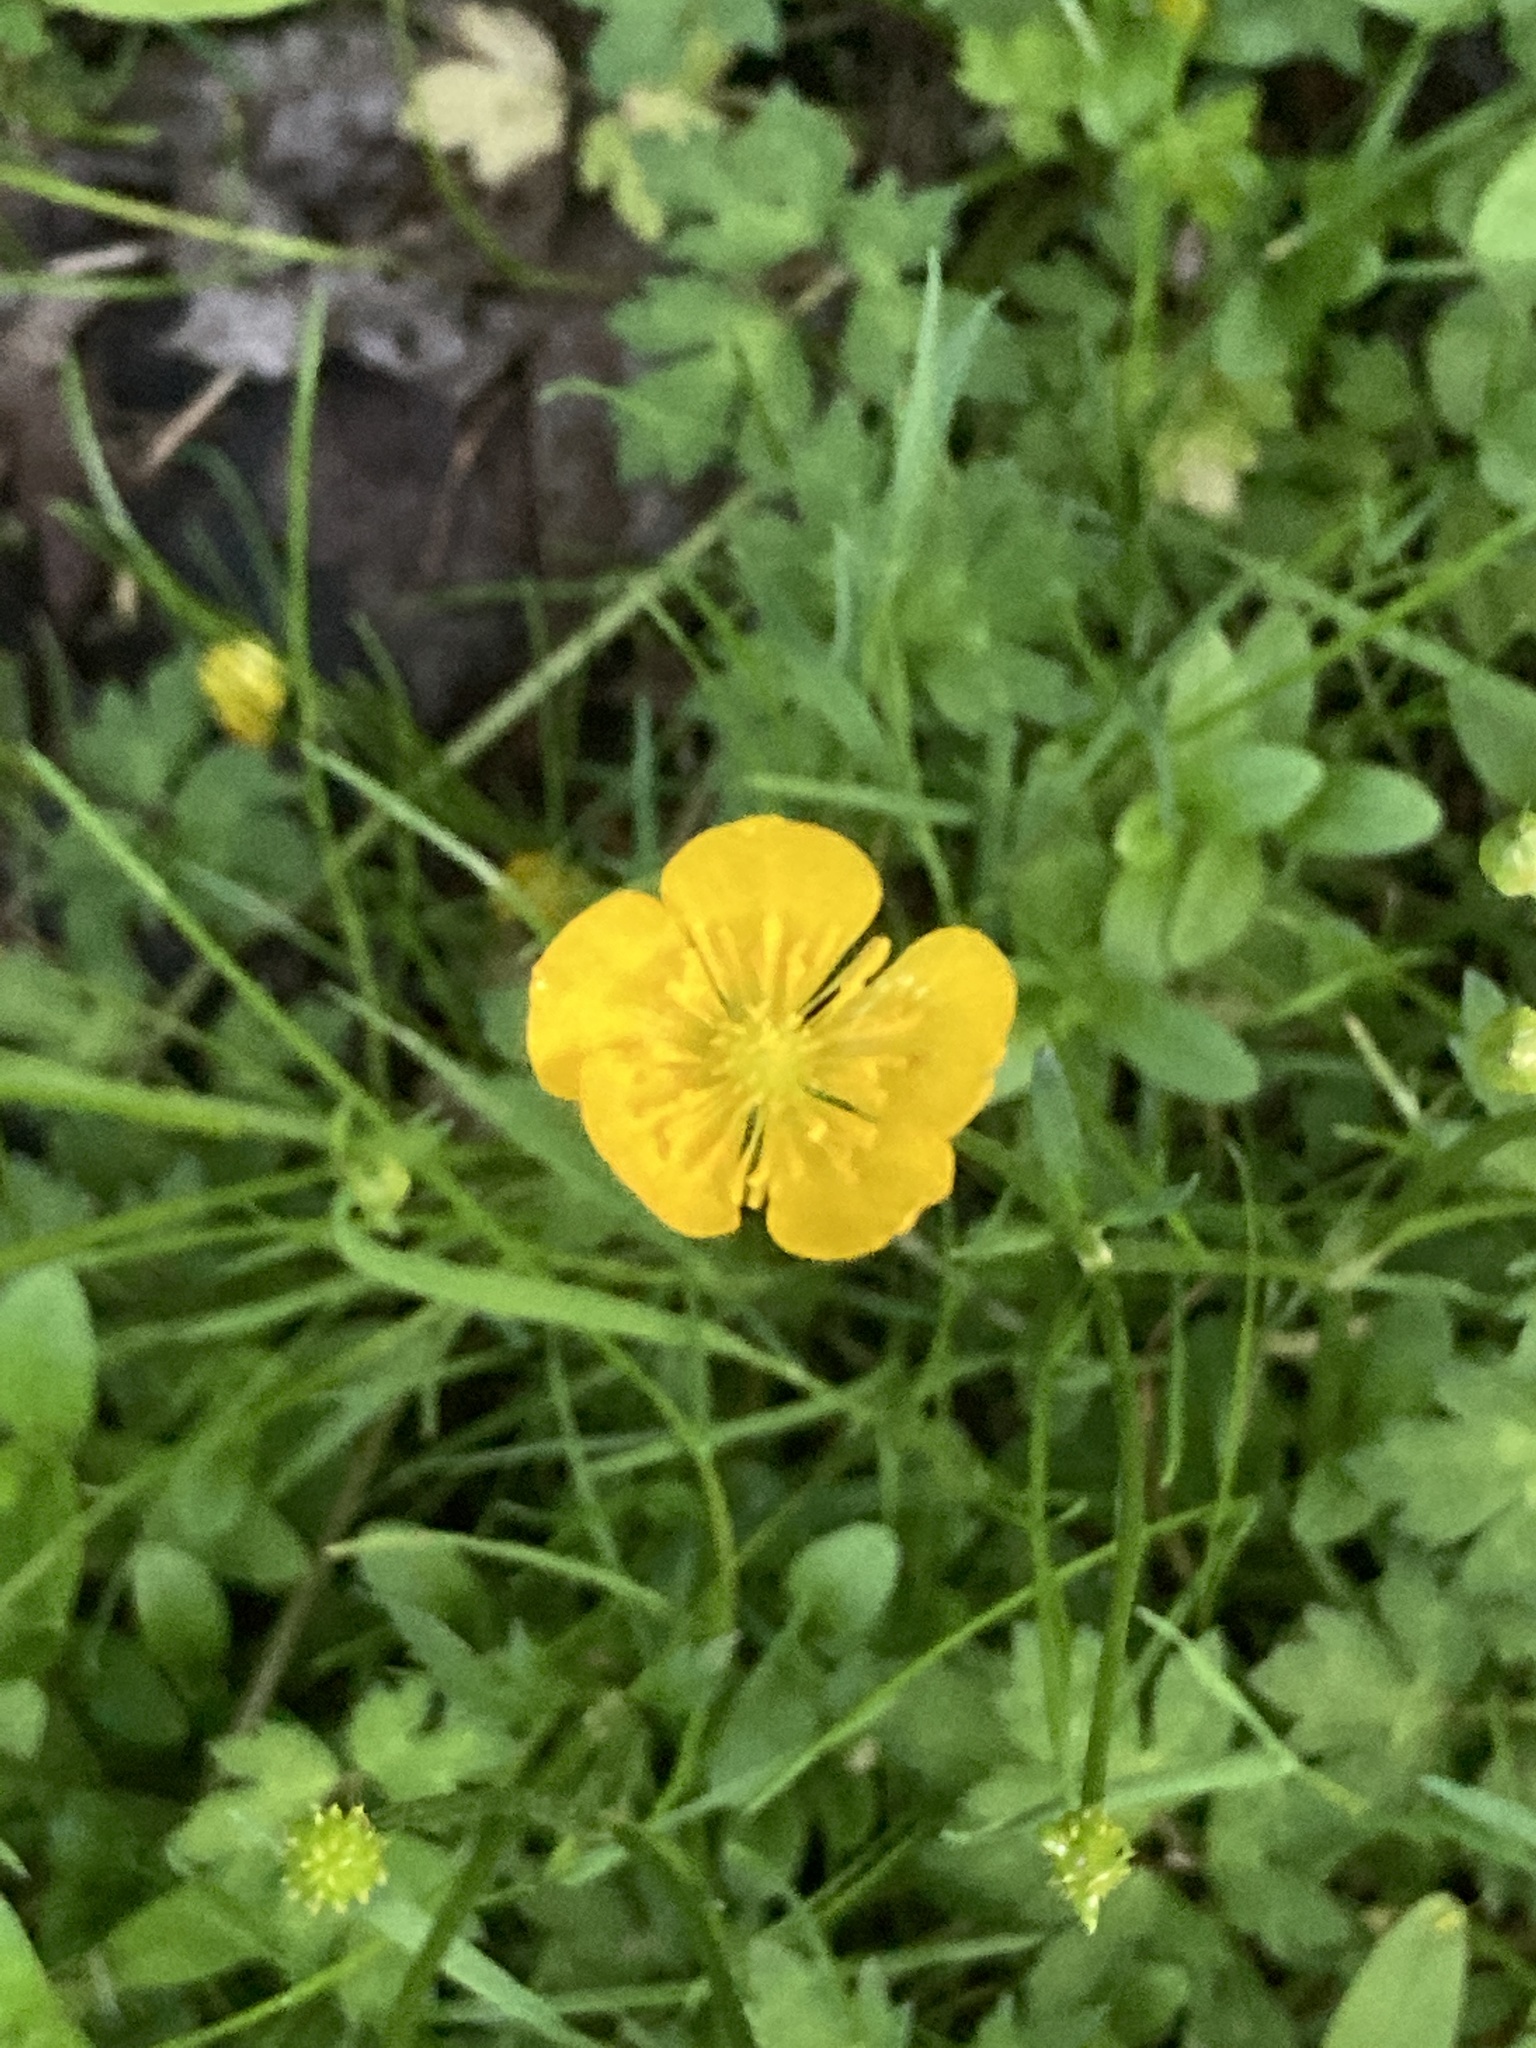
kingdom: Plantae
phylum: Tracheophyta
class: Magnoliopsida
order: Ranunculales
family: Ranunculaceae
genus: Ranunculus
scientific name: Ranunculus repens
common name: Creeping buttercup
